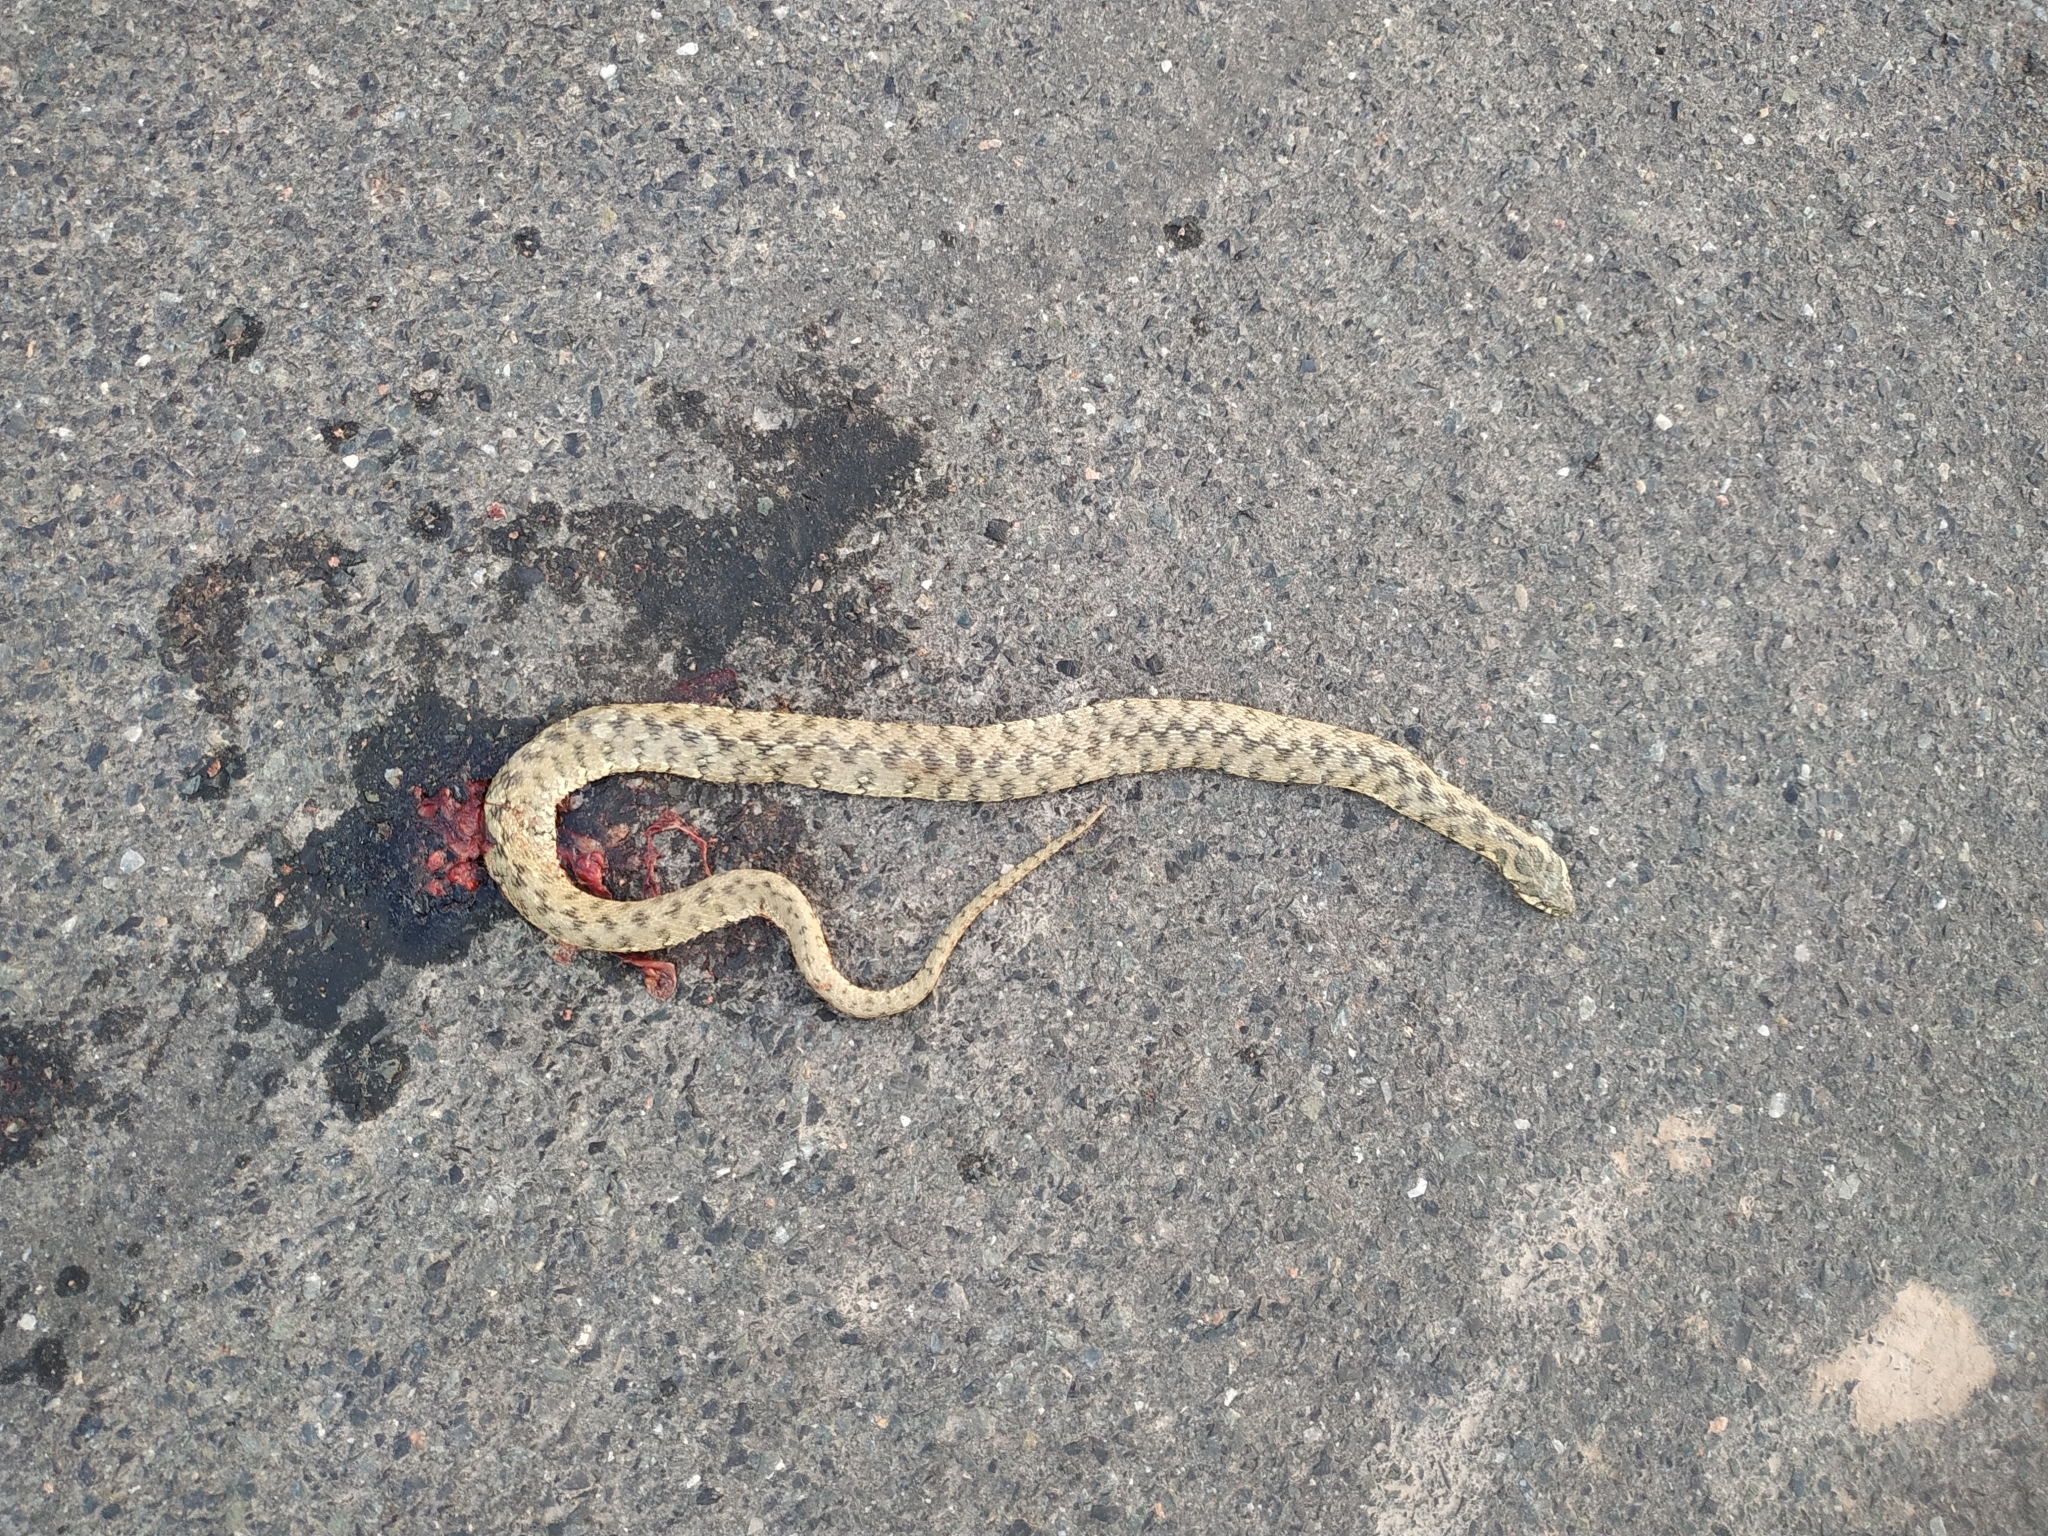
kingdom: Animalia
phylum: Chordata
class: Squamata
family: Colubridae
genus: Natrix
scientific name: Natrix maura
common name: Viperine water snake
